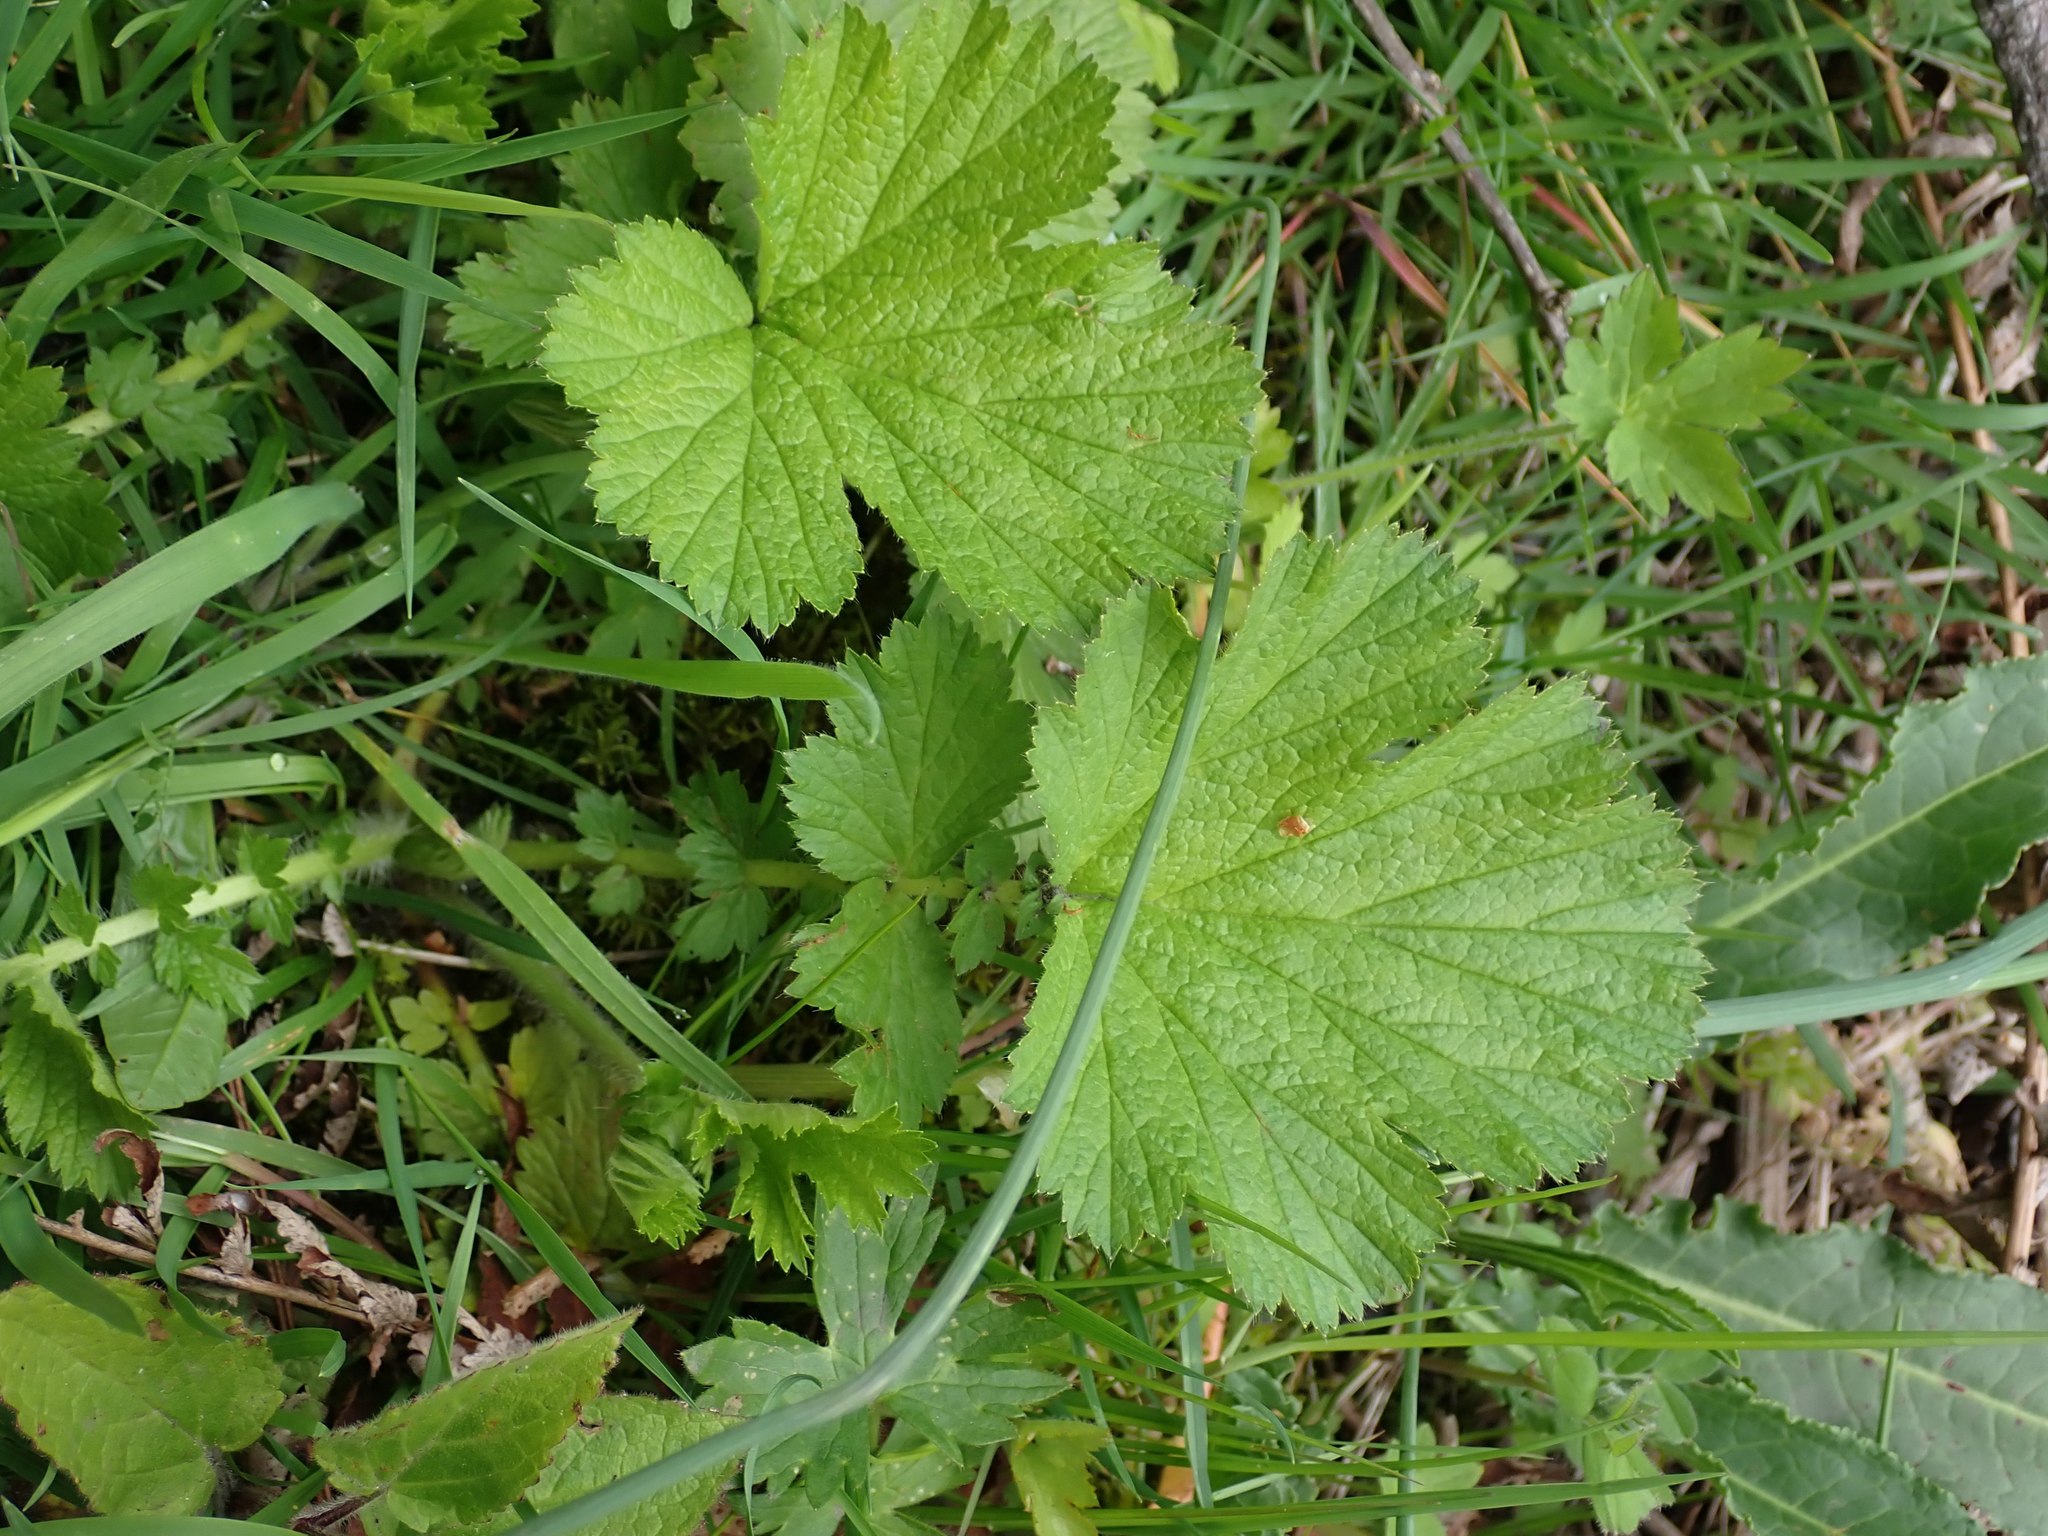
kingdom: Plantae
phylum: Tracheophyta
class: Magnoliopsida
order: Rosales
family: Rosaceae
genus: Geum
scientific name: Geum macrophyllum
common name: Large-leaved avens
